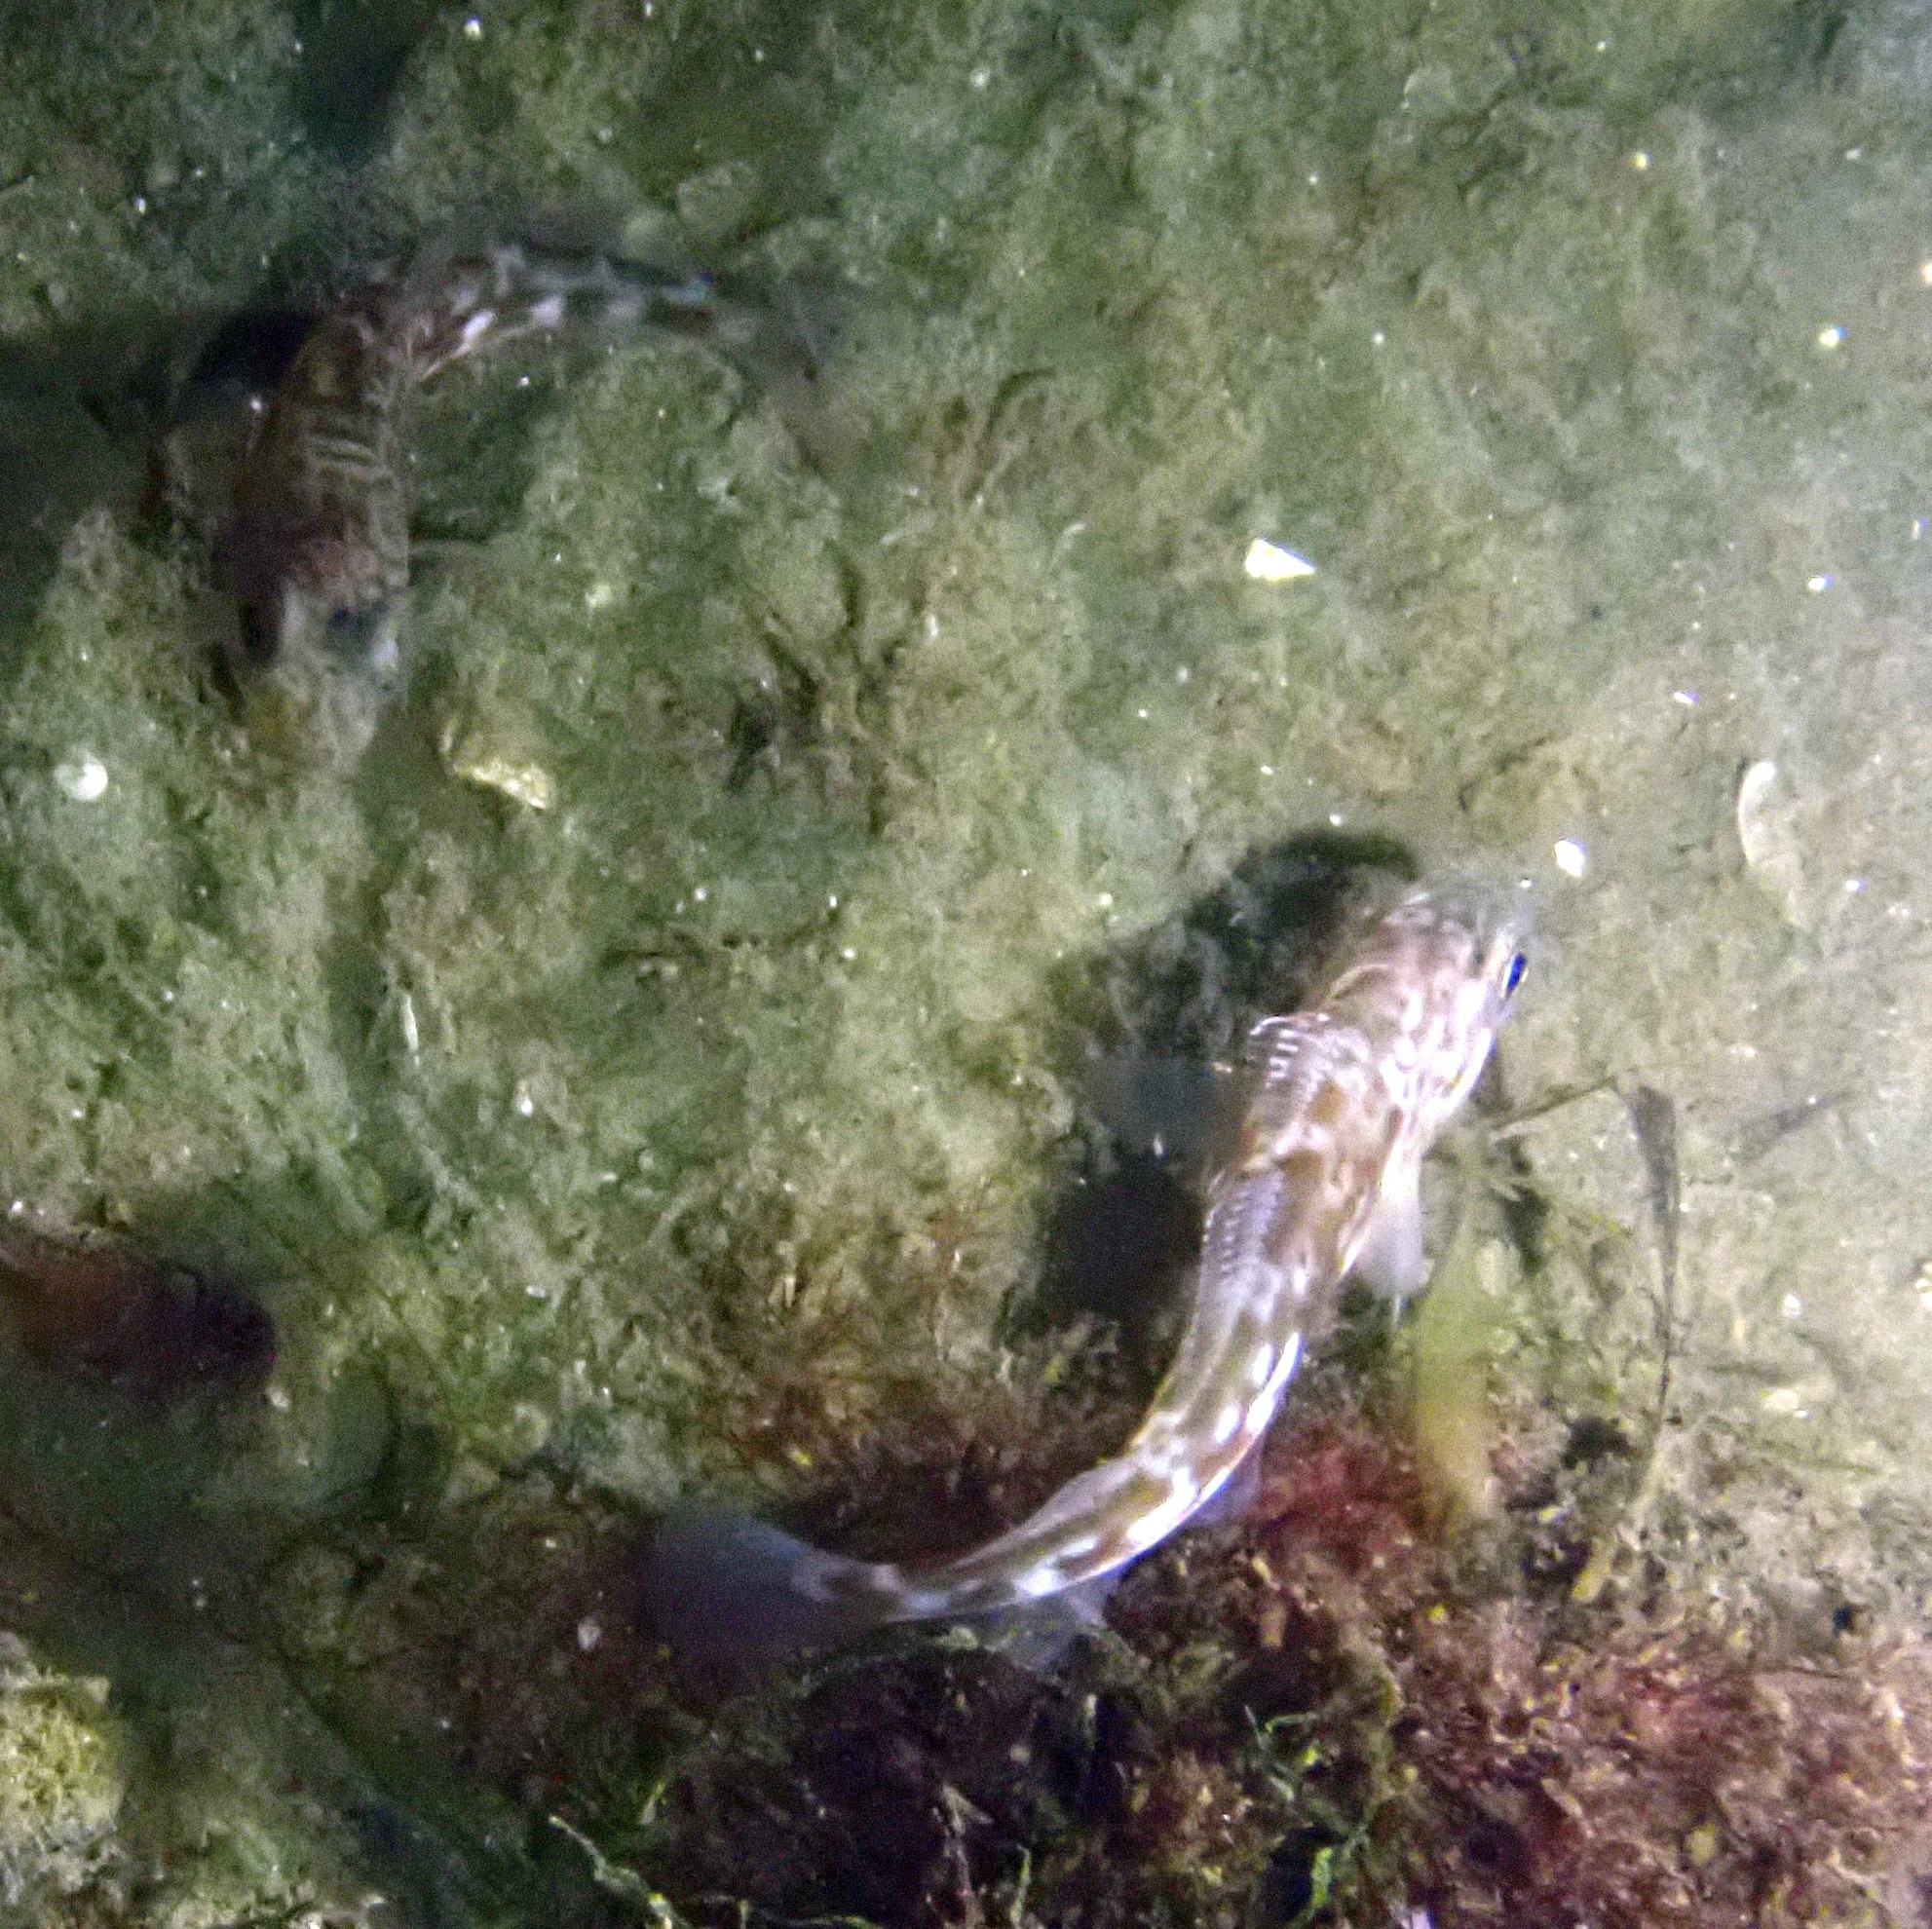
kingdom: Animalia
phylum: Chordata
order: Gadiformes
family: Gadidae
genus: Gadus
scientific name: Gadus morhua
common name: Atlantic cod
